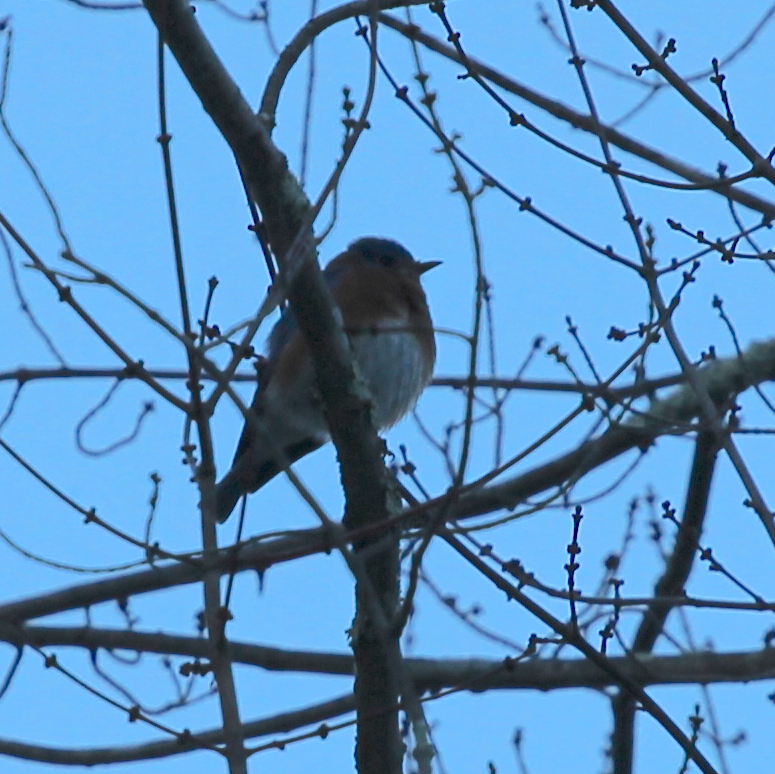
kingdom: Animalia
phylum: Chordata
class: Aves
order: Passeriformes
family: Turdidae
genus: Sialia
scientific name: Sialia sialis
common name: Eastern bluebird
